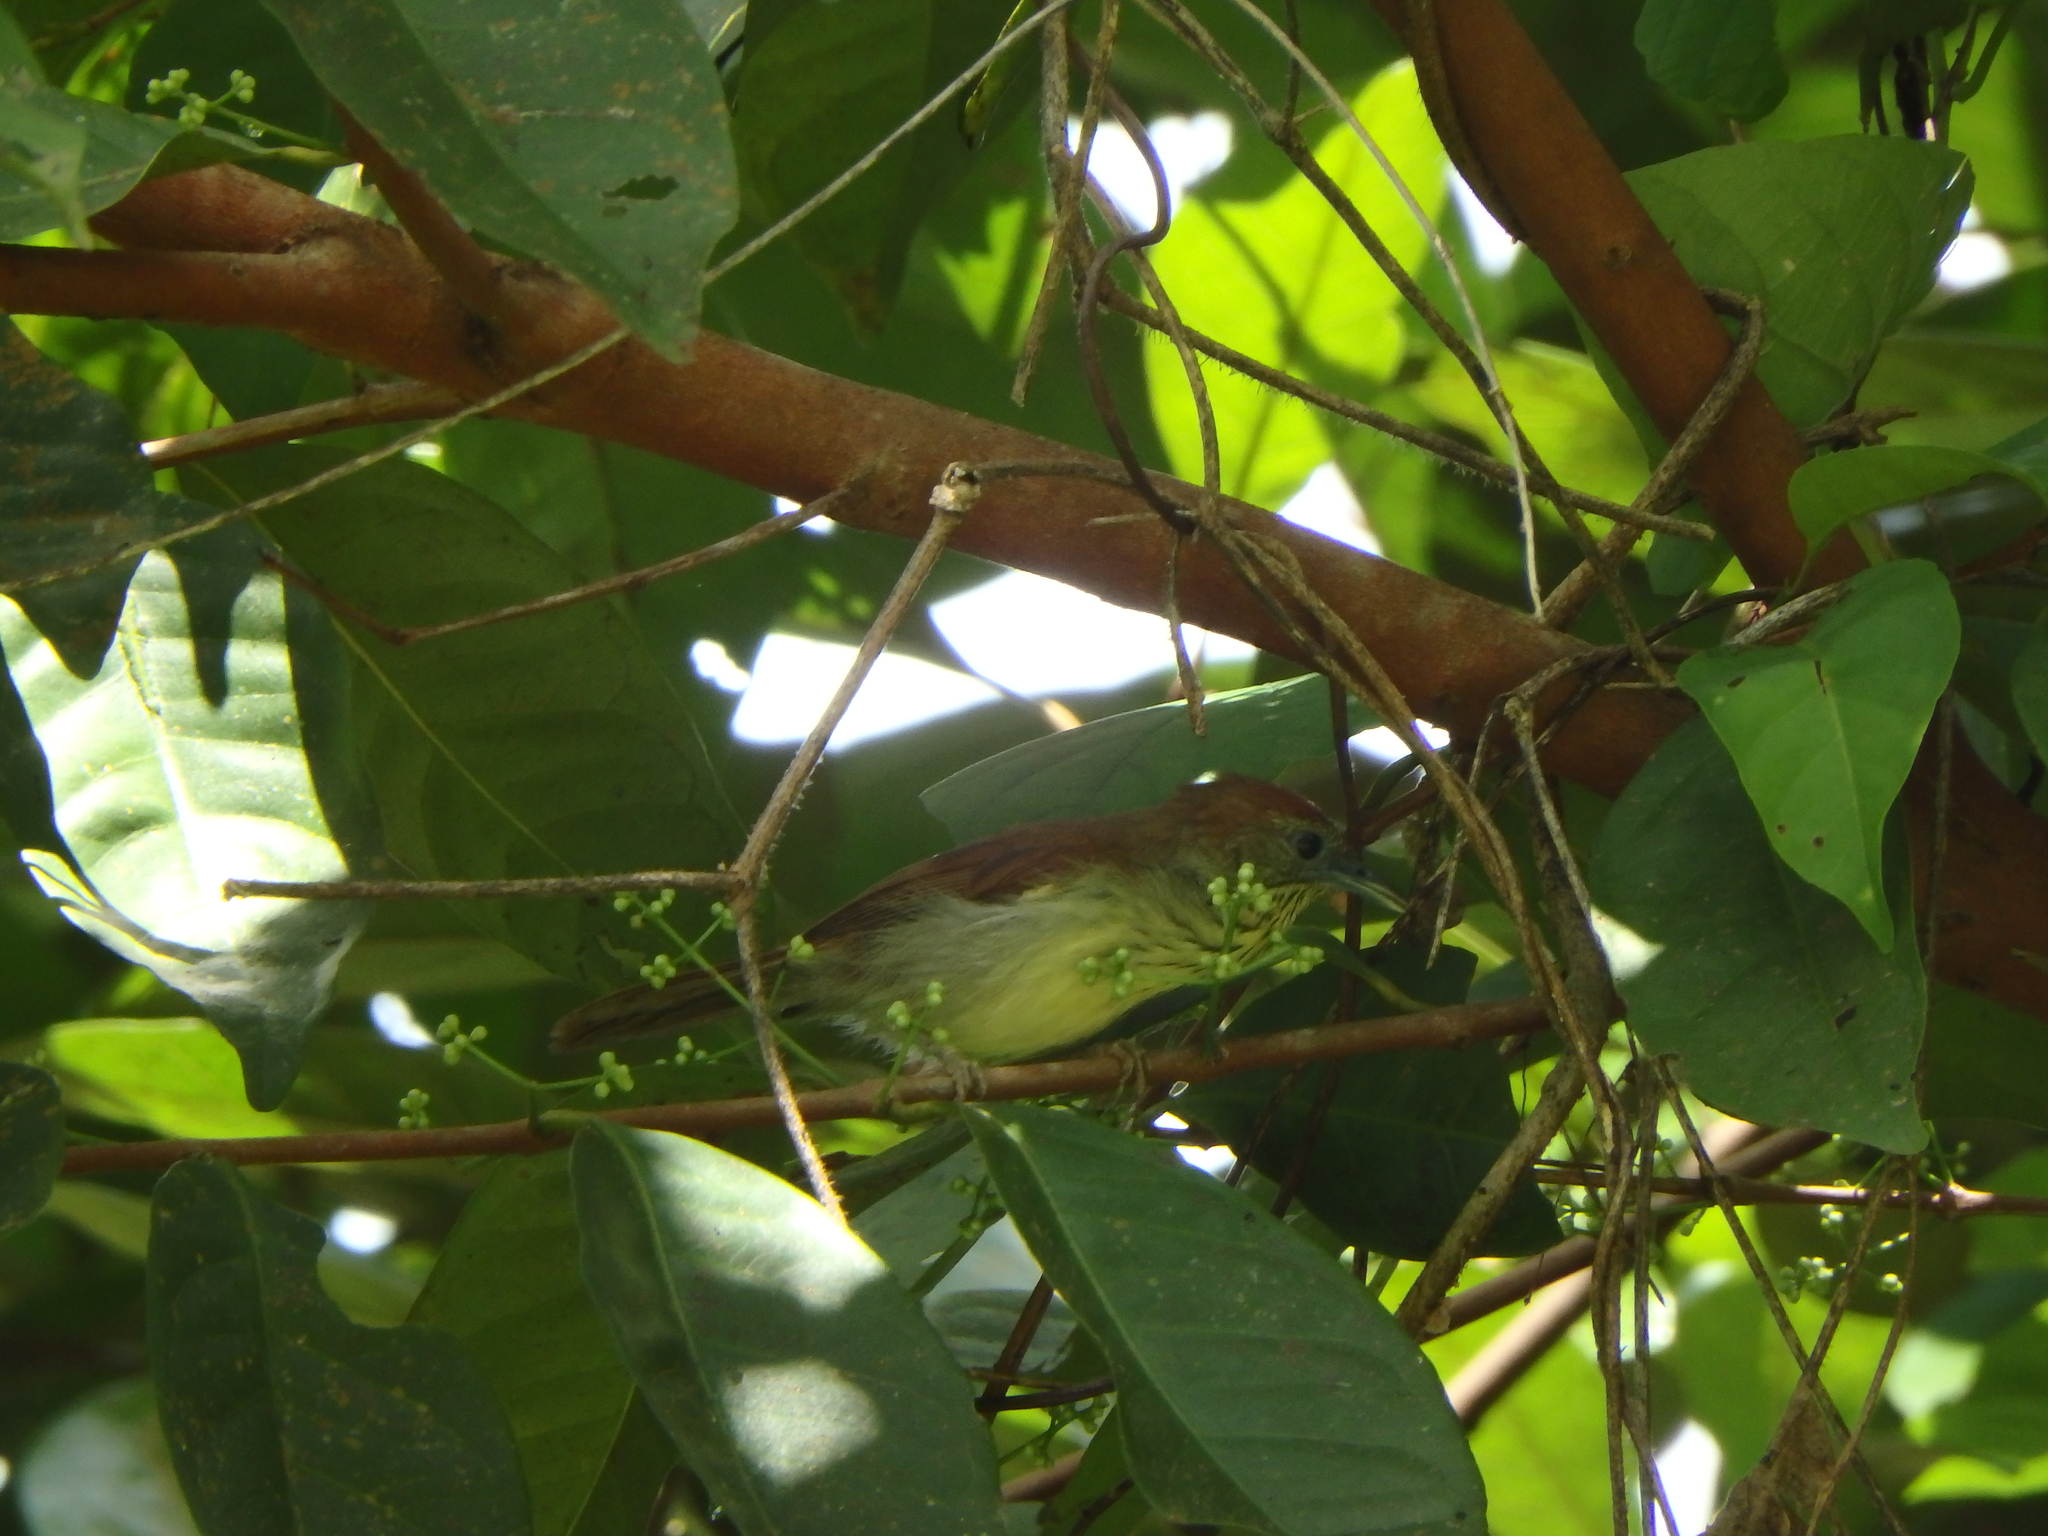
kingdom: Animalia
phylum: Chordata
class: Aves
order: Passeriformes
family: Timaliidae
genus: Macronus
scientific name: Macronus gularis
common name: Striped tit-babbler
